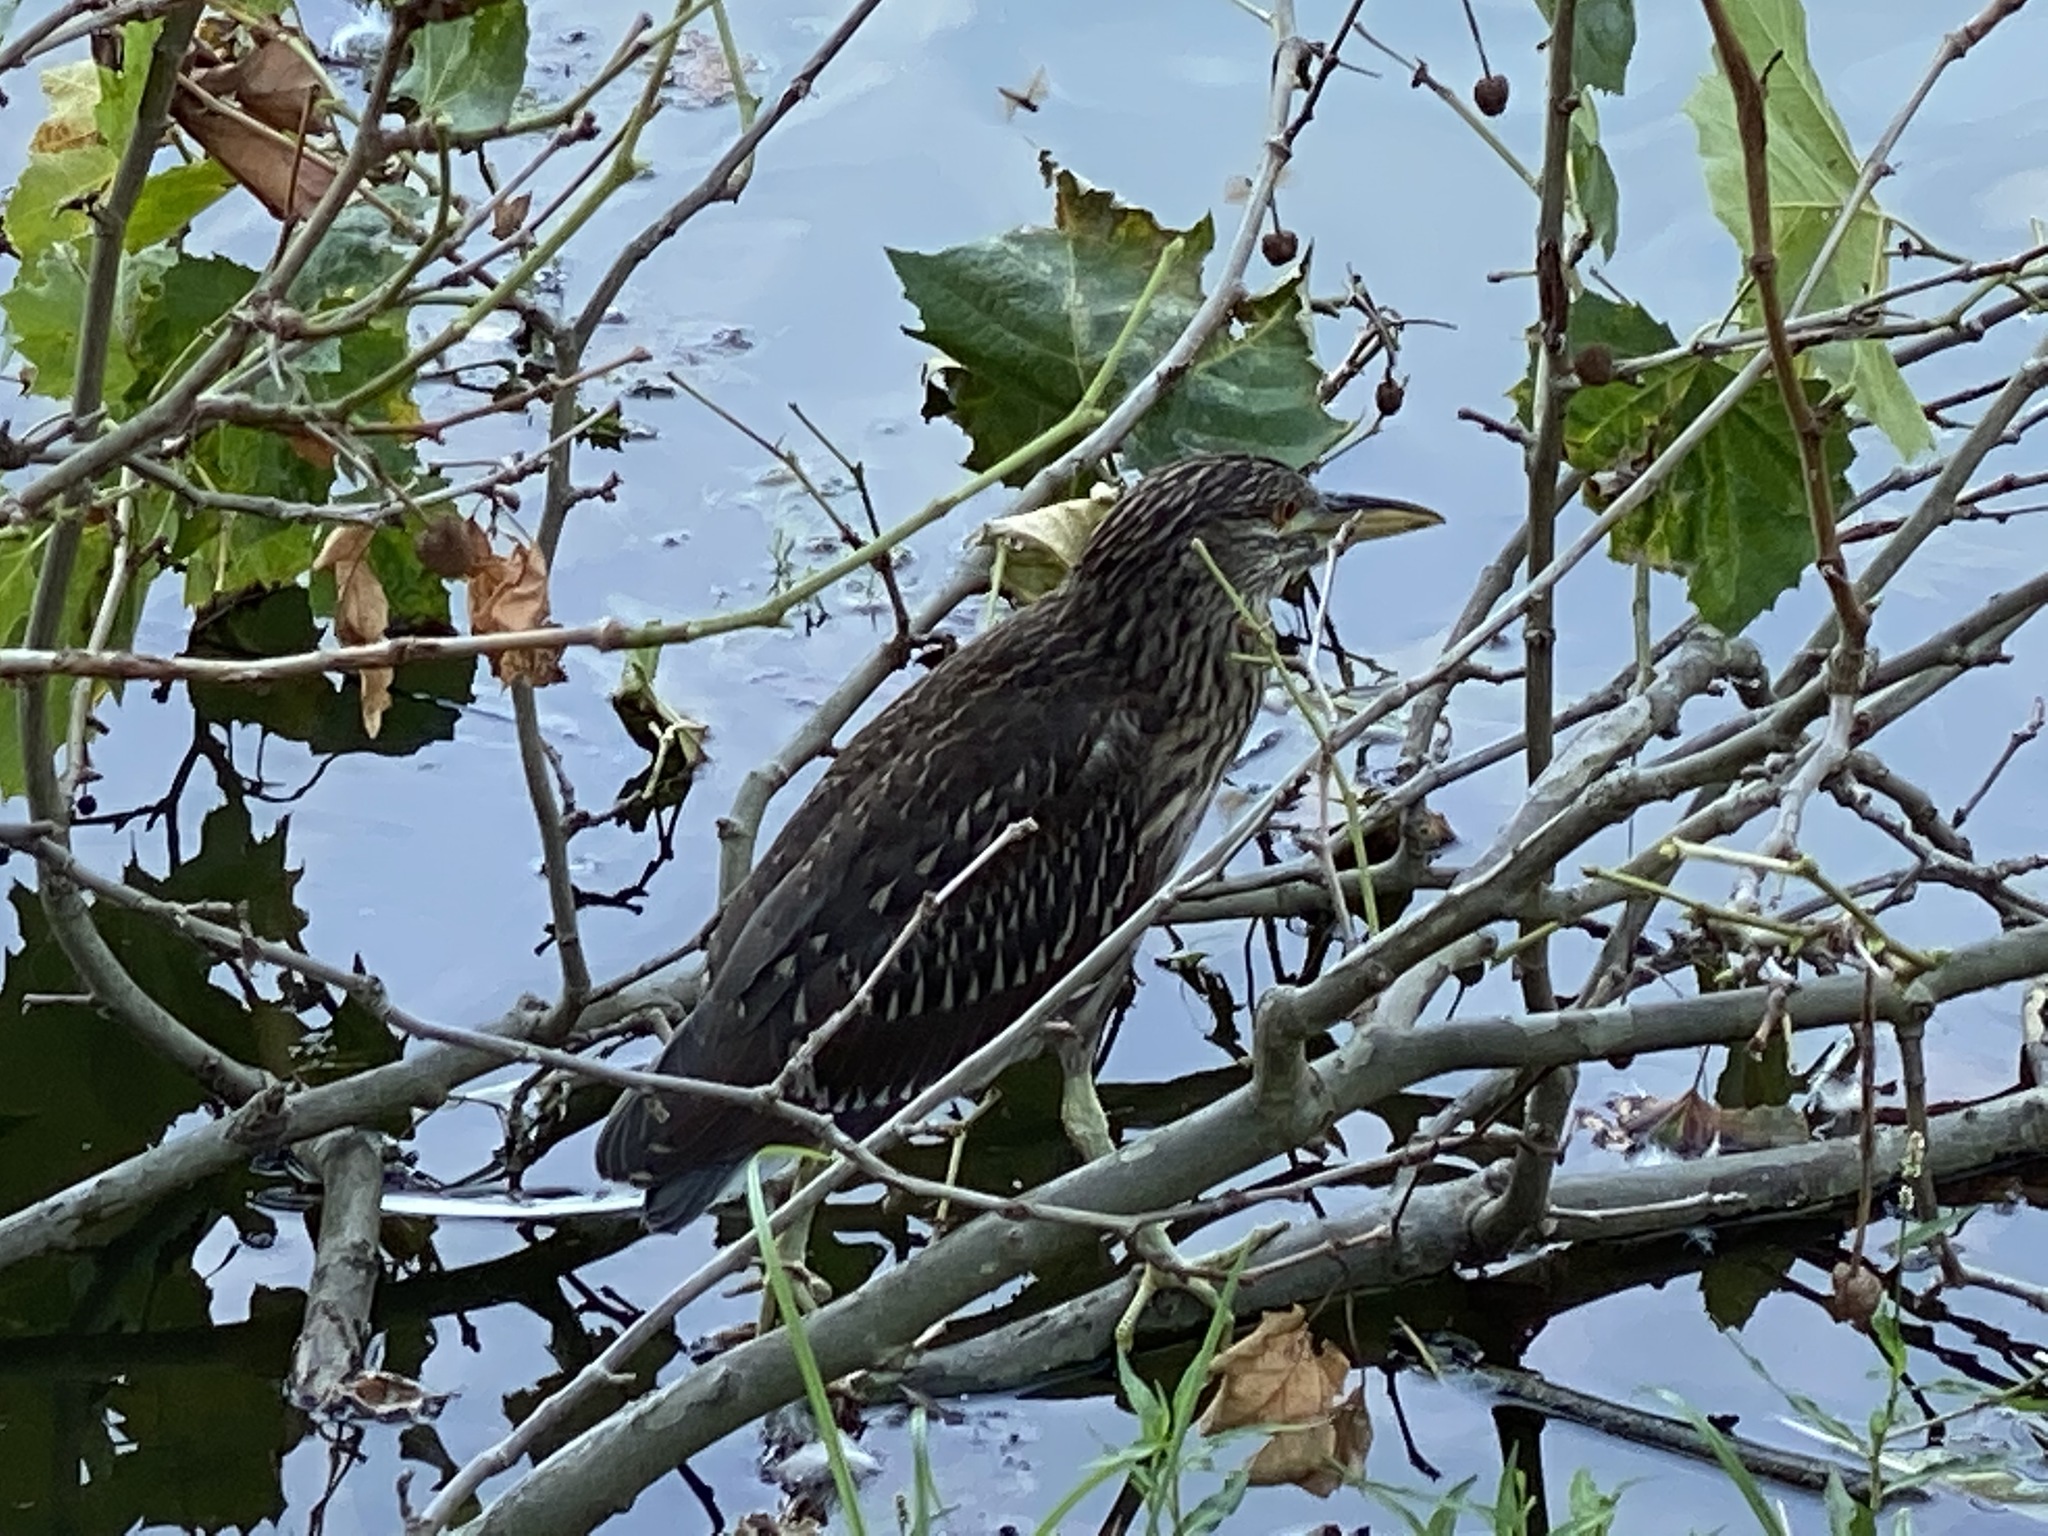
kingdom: Animalia
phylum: Chordata
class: Aves
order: Pelecaniformes
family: Ardeidae
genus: Nycticorax
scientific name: Nycticorax nycticorax
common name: Black-crowned night heron
